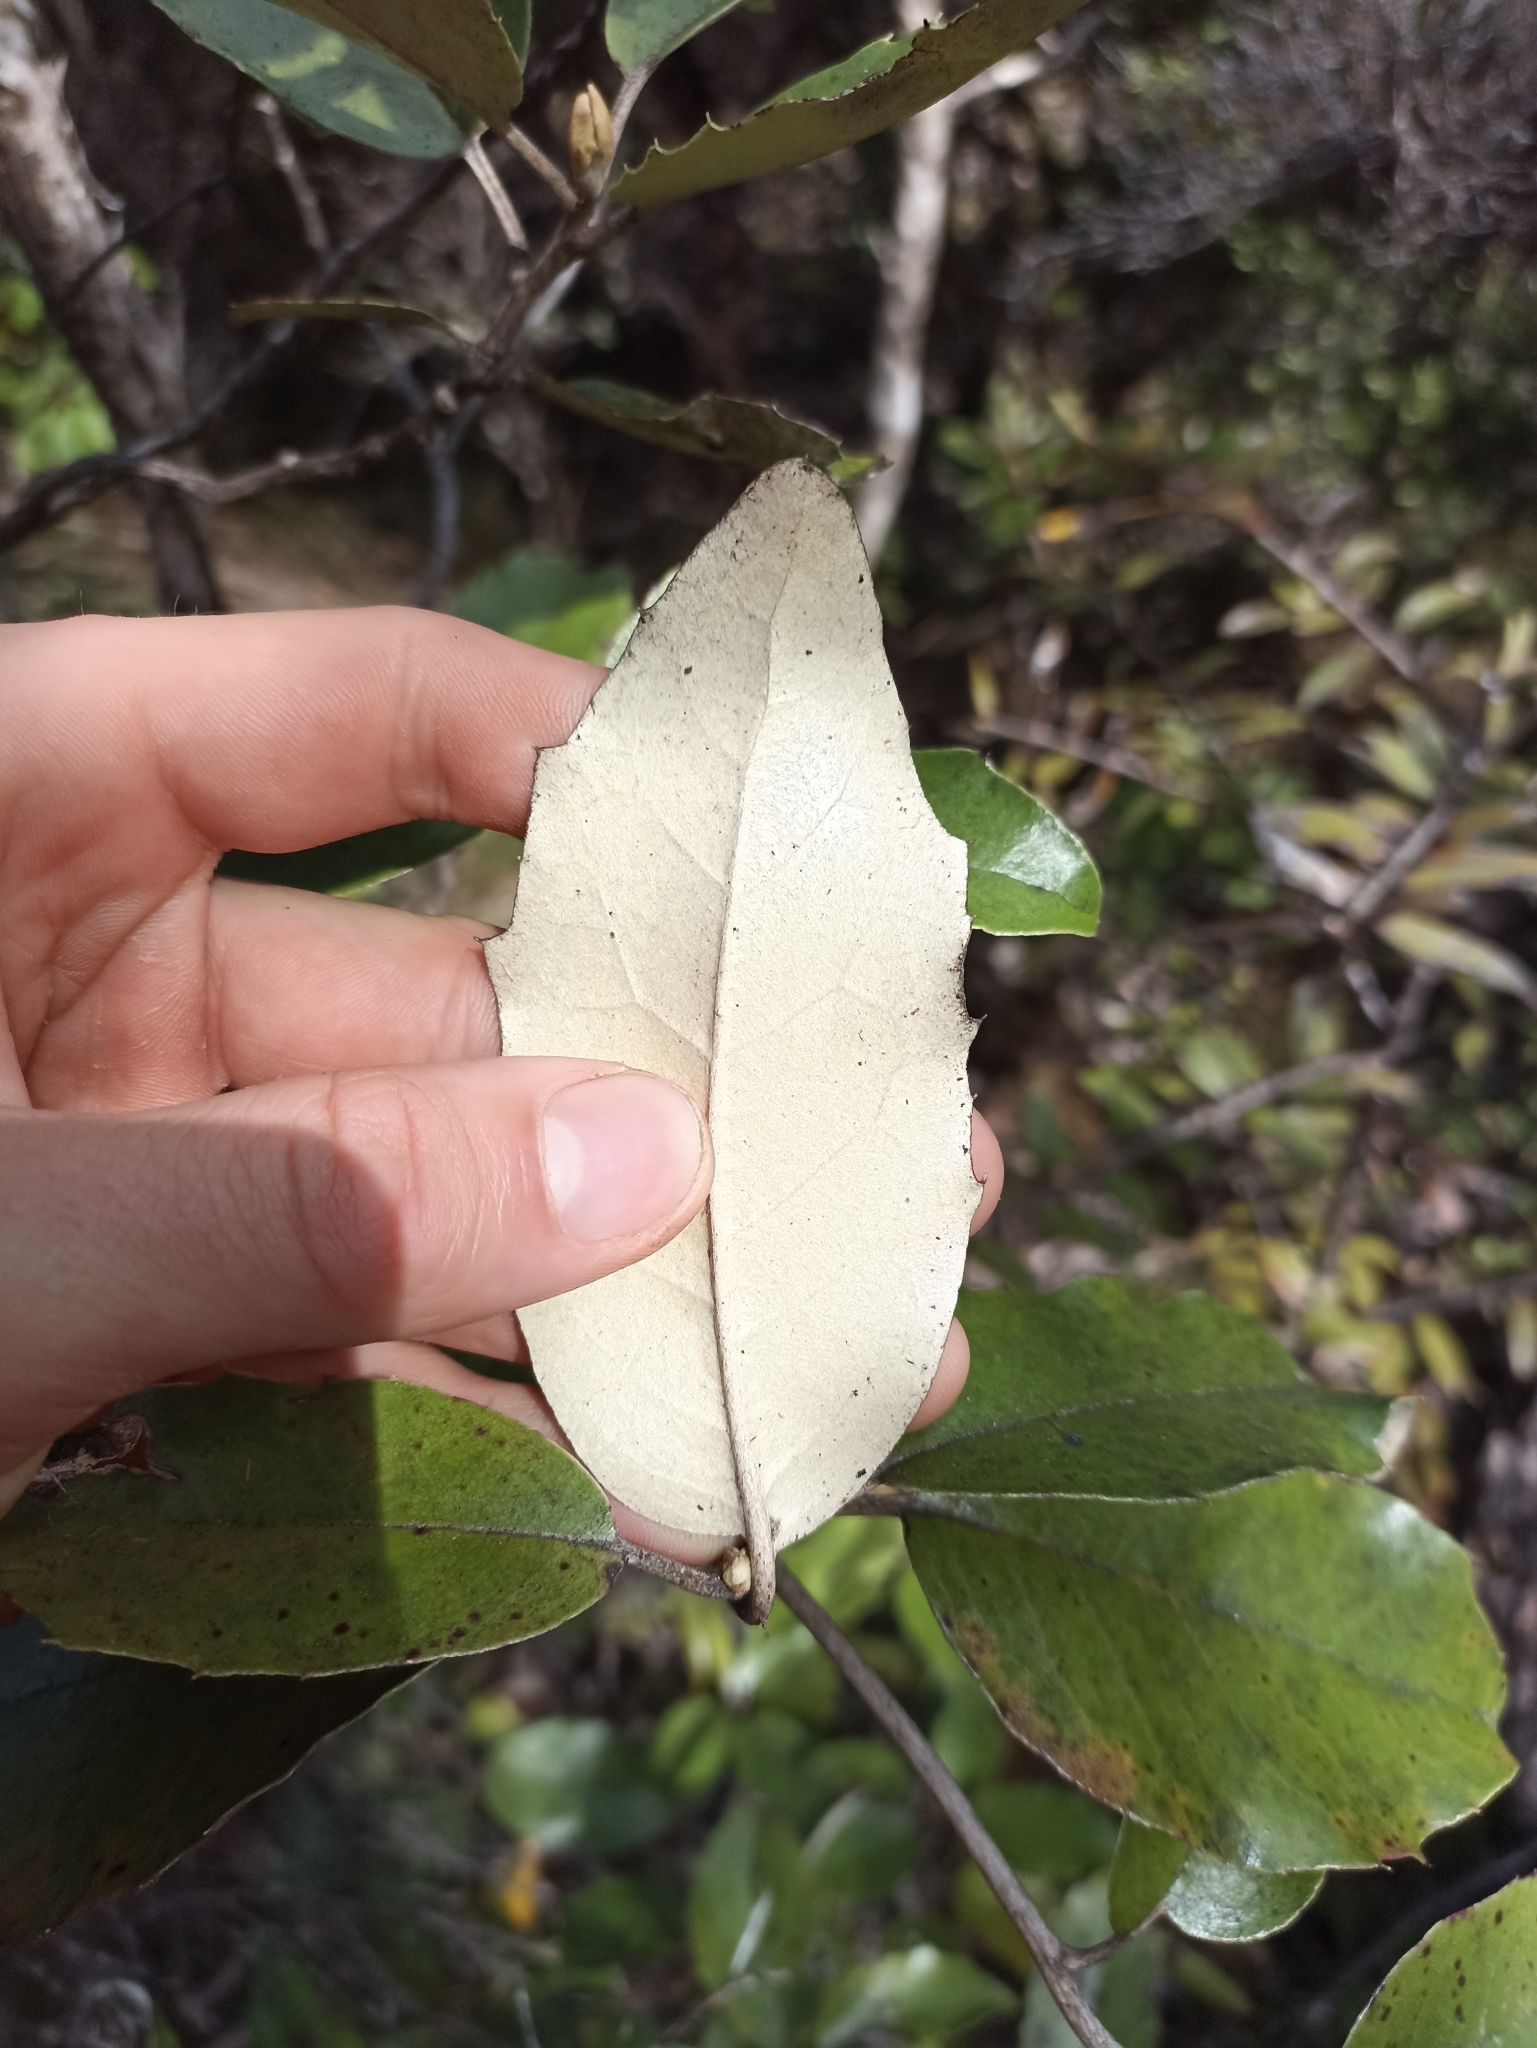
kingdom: Plantae
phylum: Tracheophyta
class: Magnoliopsida
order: Asterales
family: Asteraceae
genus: Olearia
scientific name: Olearia furfuracea
